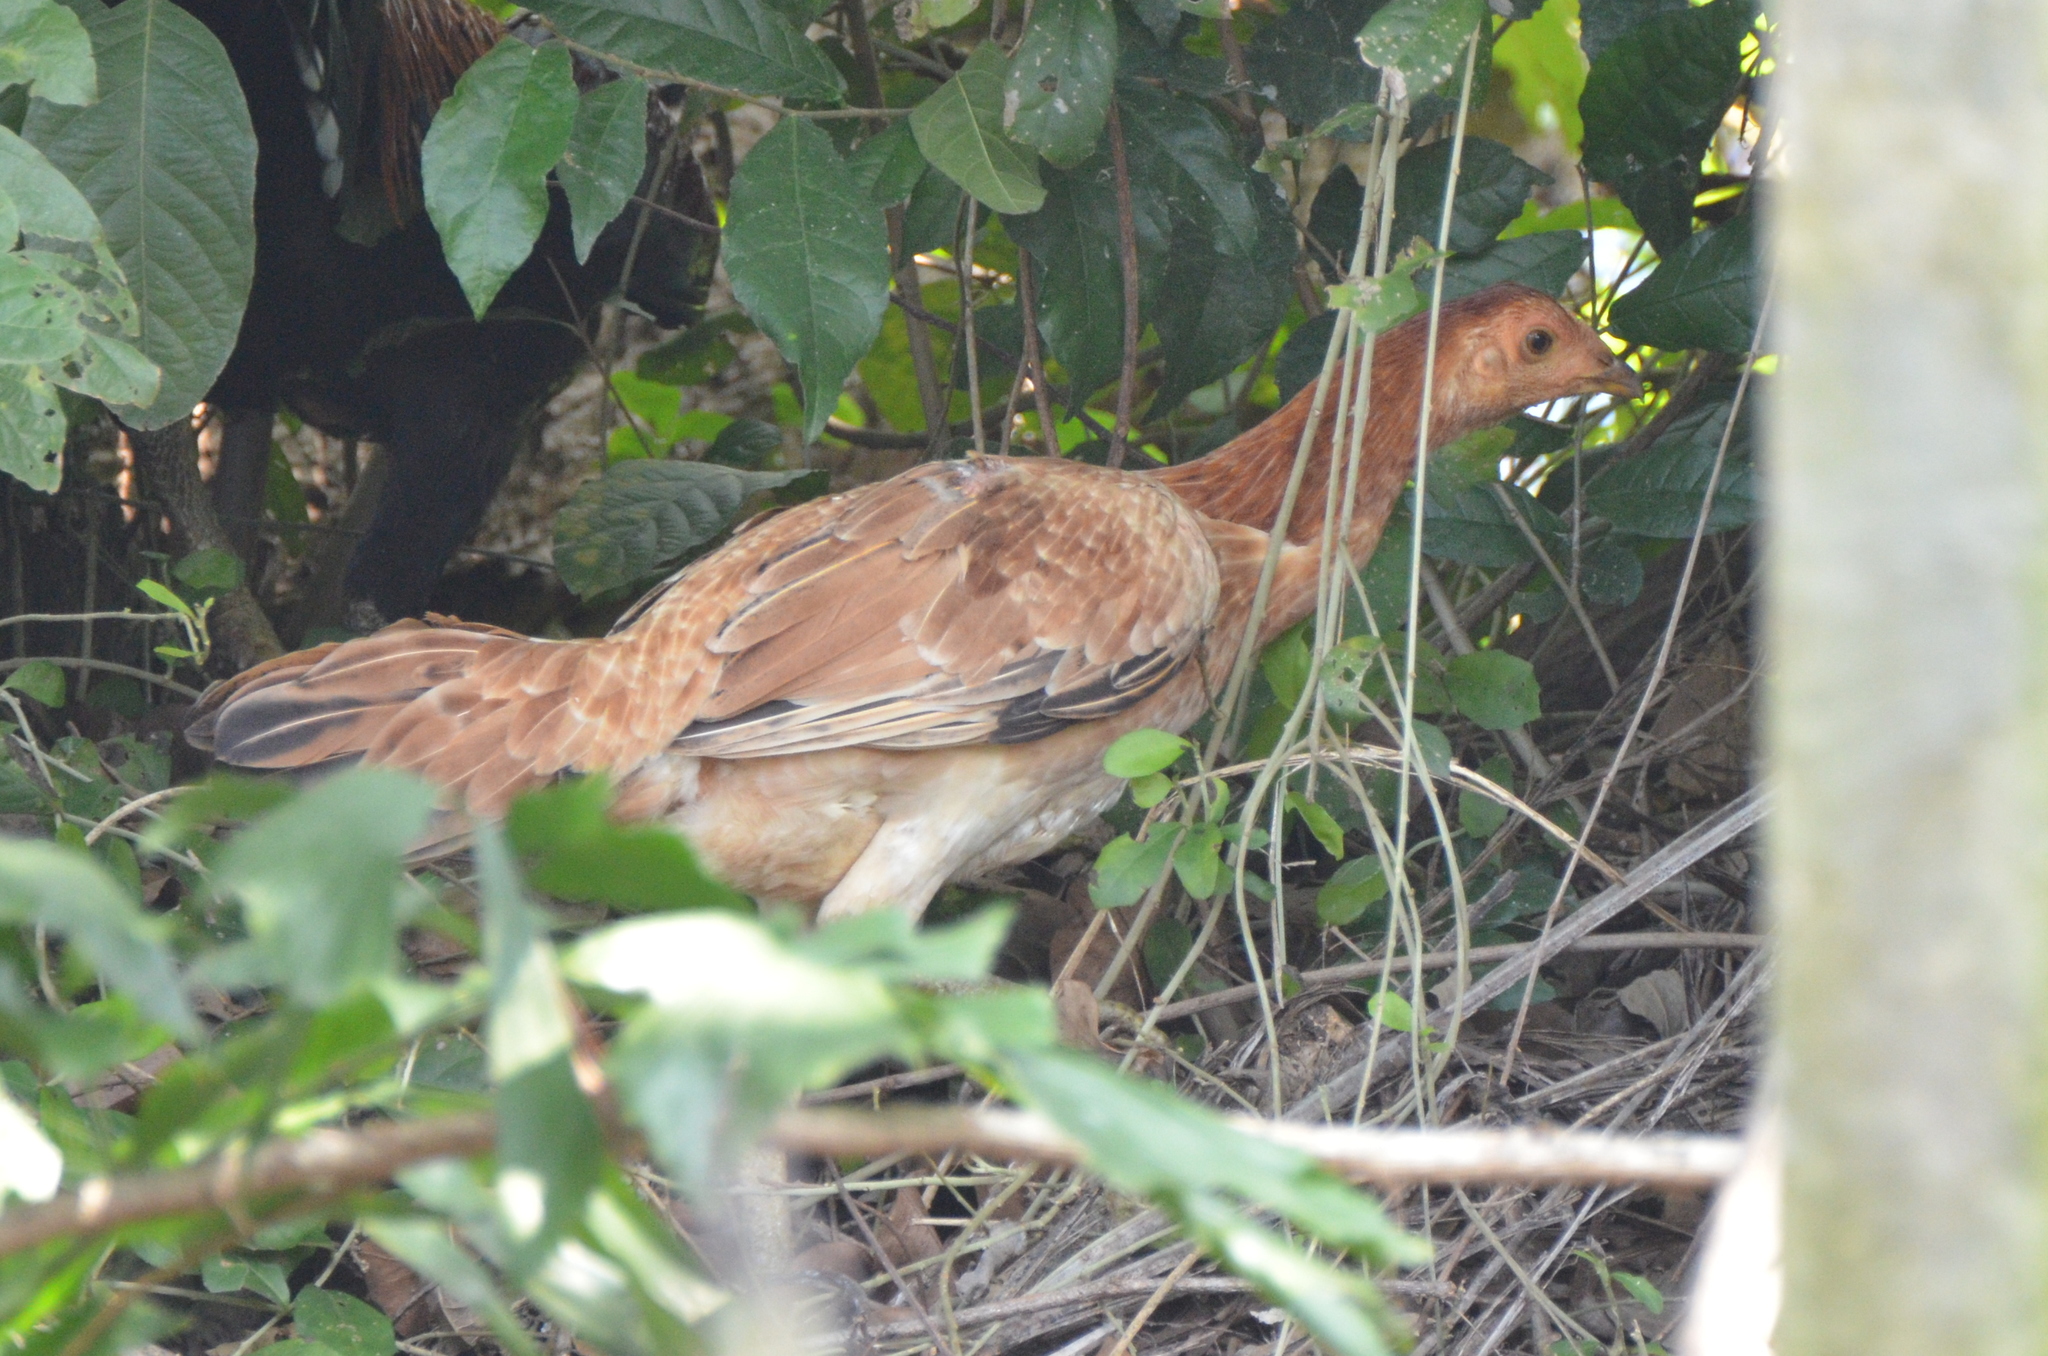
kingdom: Animalia
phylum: Chordata
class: Aves
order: Galliformes
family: Phasianidae
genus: Gallus
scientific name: Gallus gallus
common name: Red junglefowl
